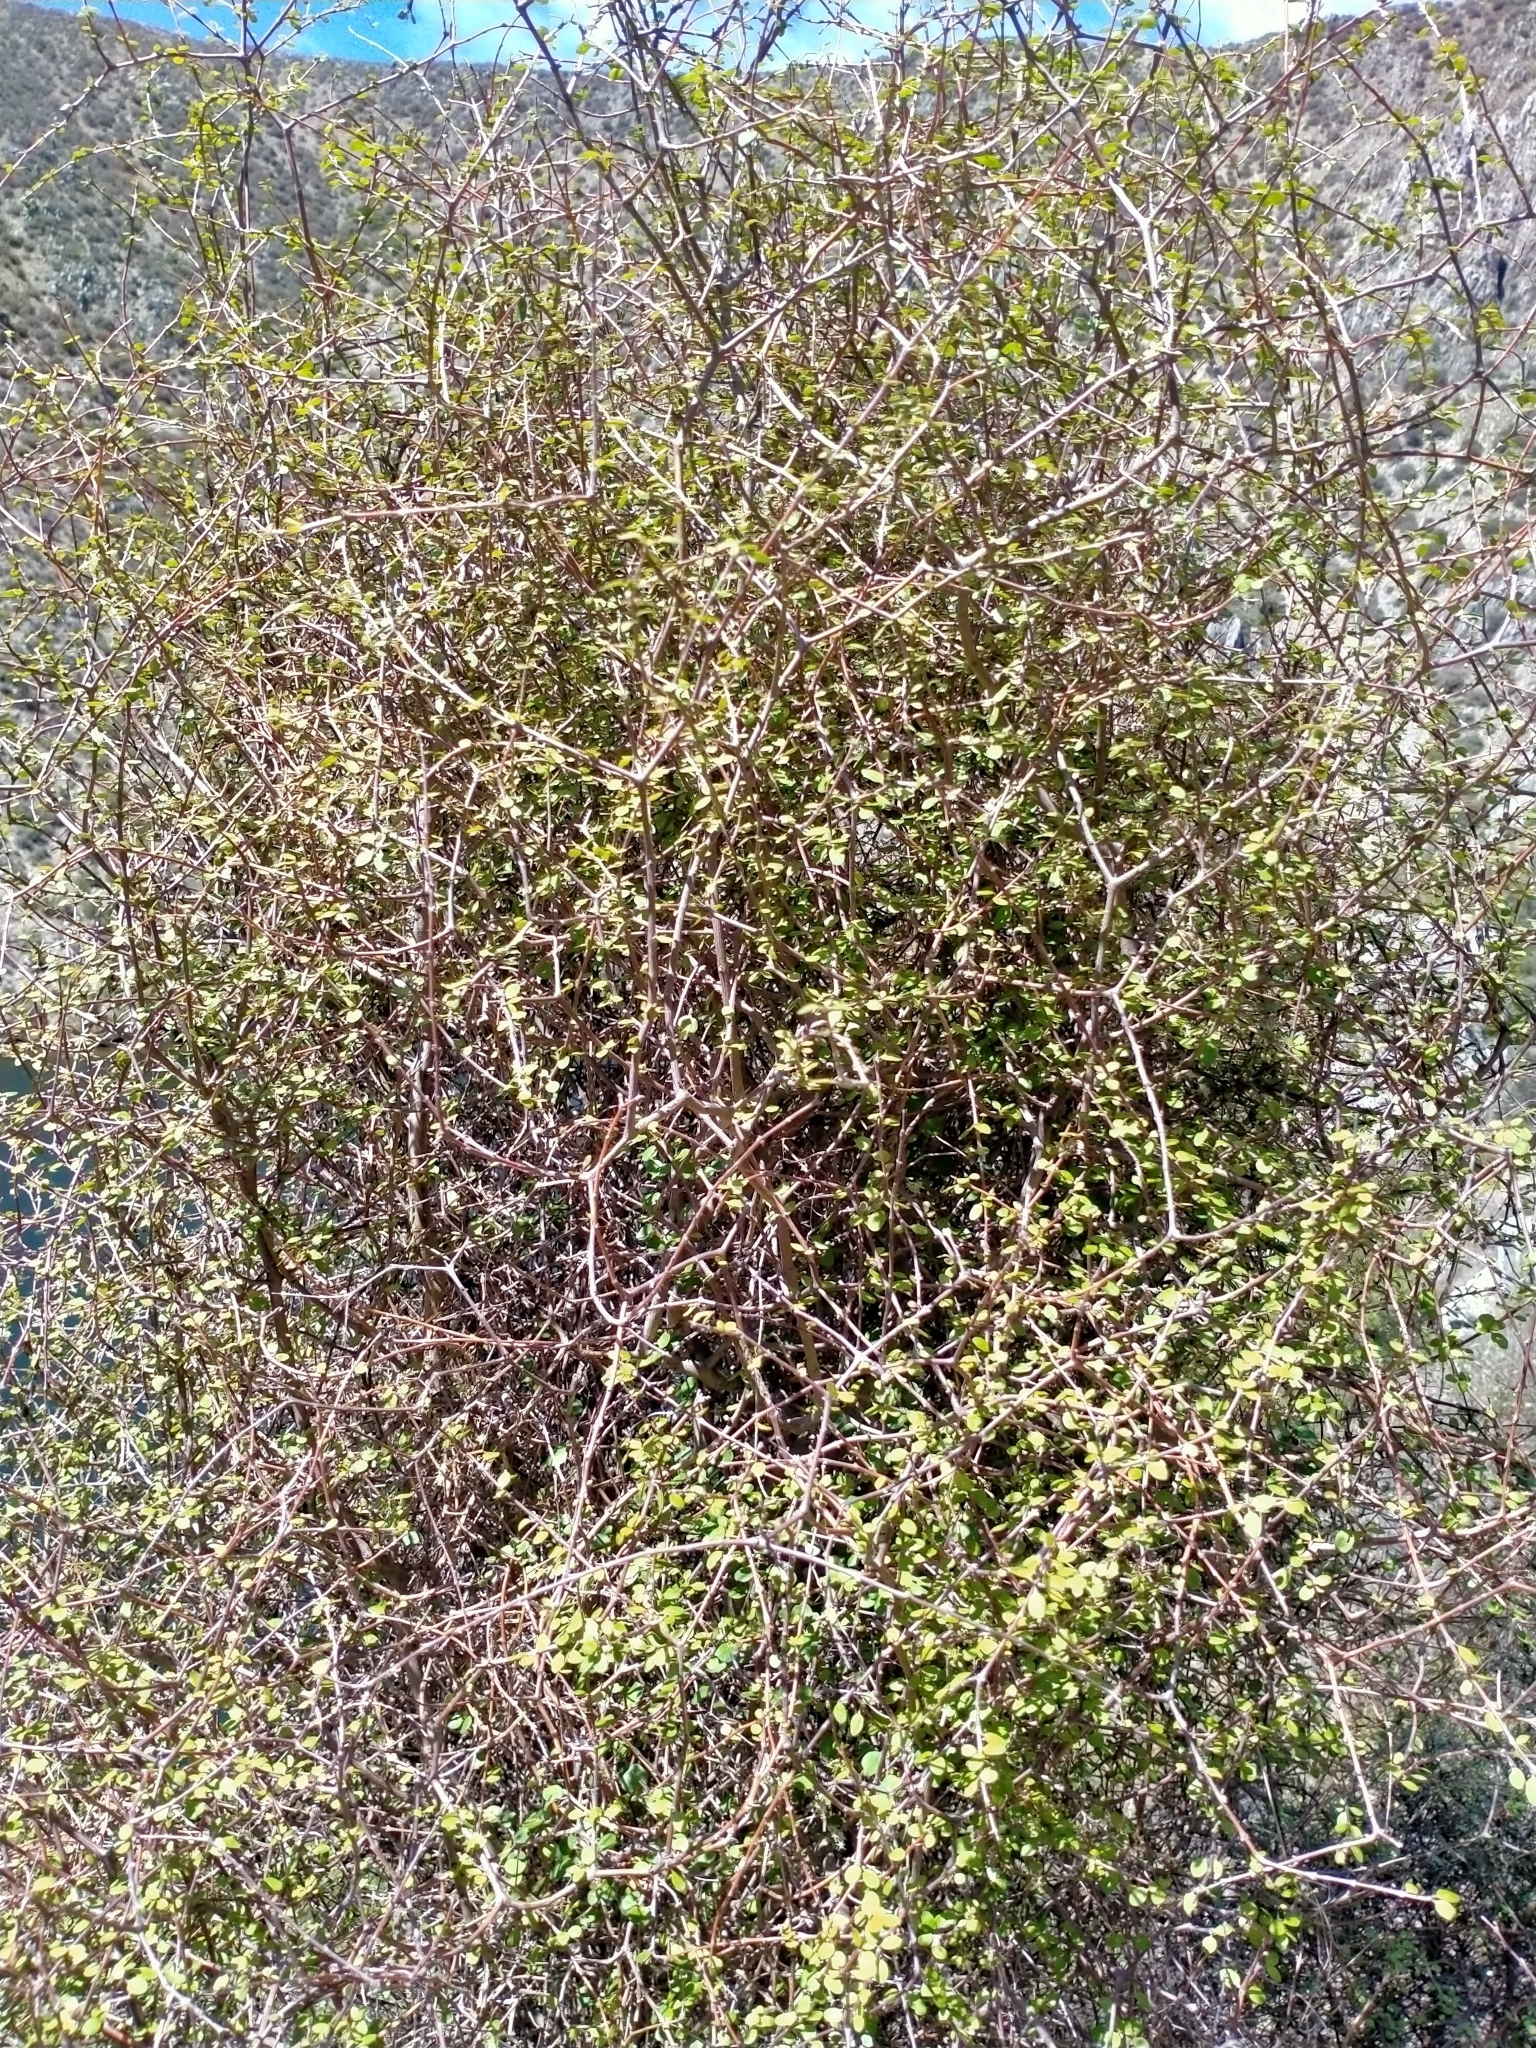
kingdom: Plantae
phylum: Tracheophyta
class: Magnoliopsida
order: Gentianales
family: Rubiaceae
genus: Coprosma
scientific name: Coprosma virescens
